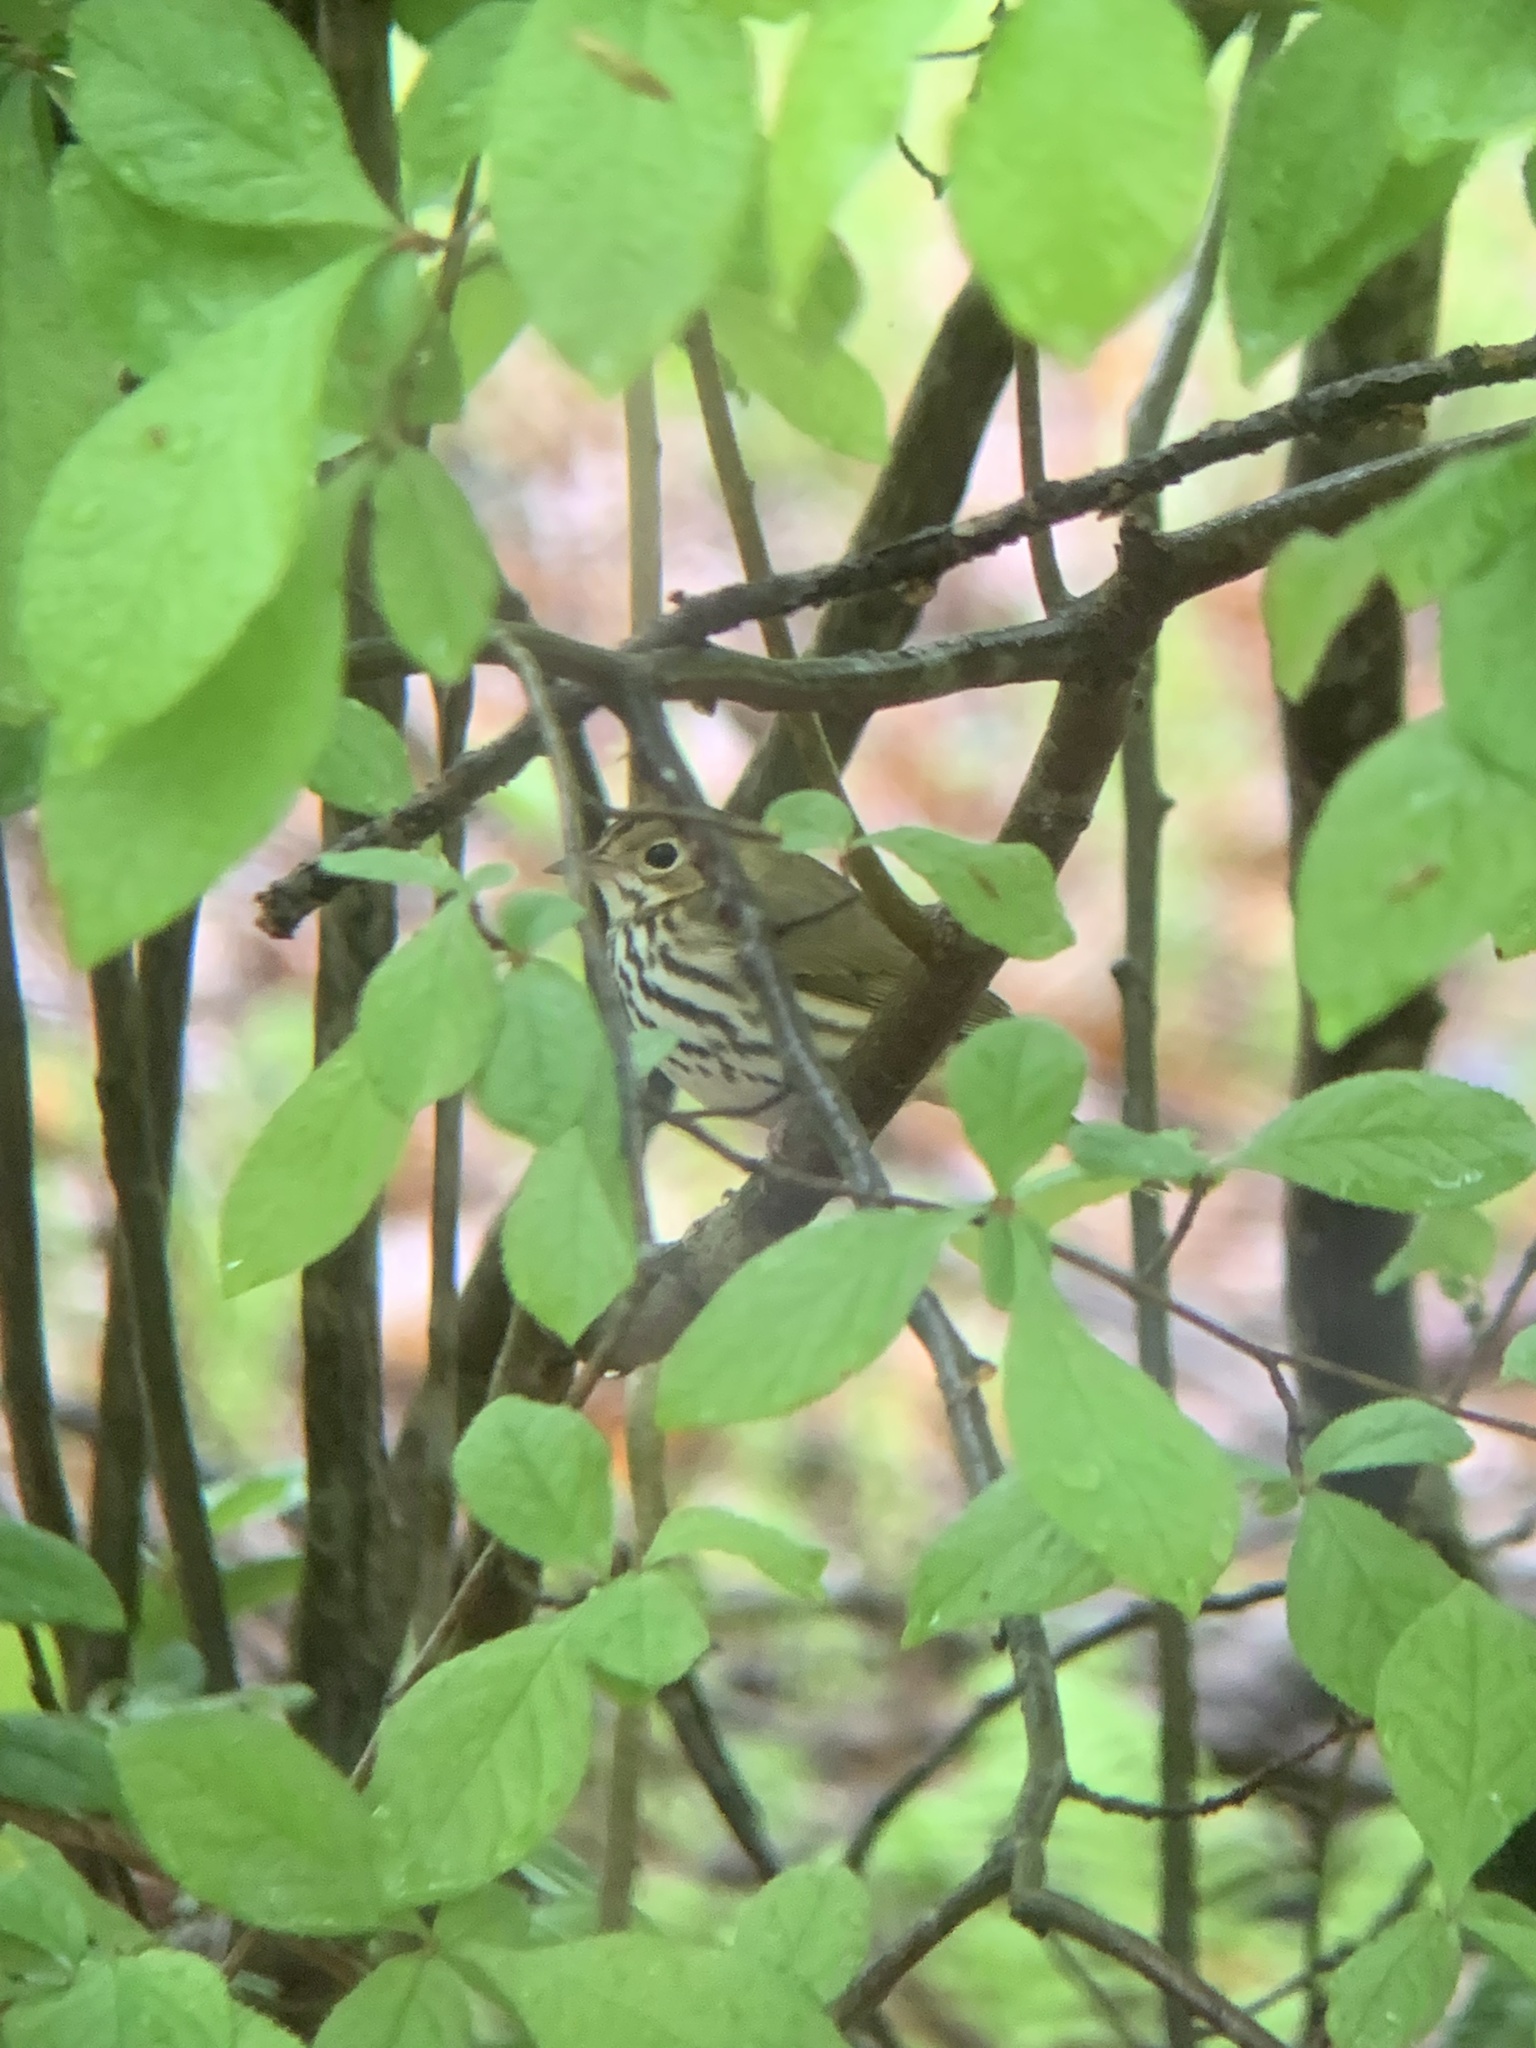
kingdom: Animalia
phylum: Chordata
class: Aves
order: Passeriformes
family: Parulidae
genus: Seiurus
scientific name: Seiurus aurocapilla
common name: Ovenbird
